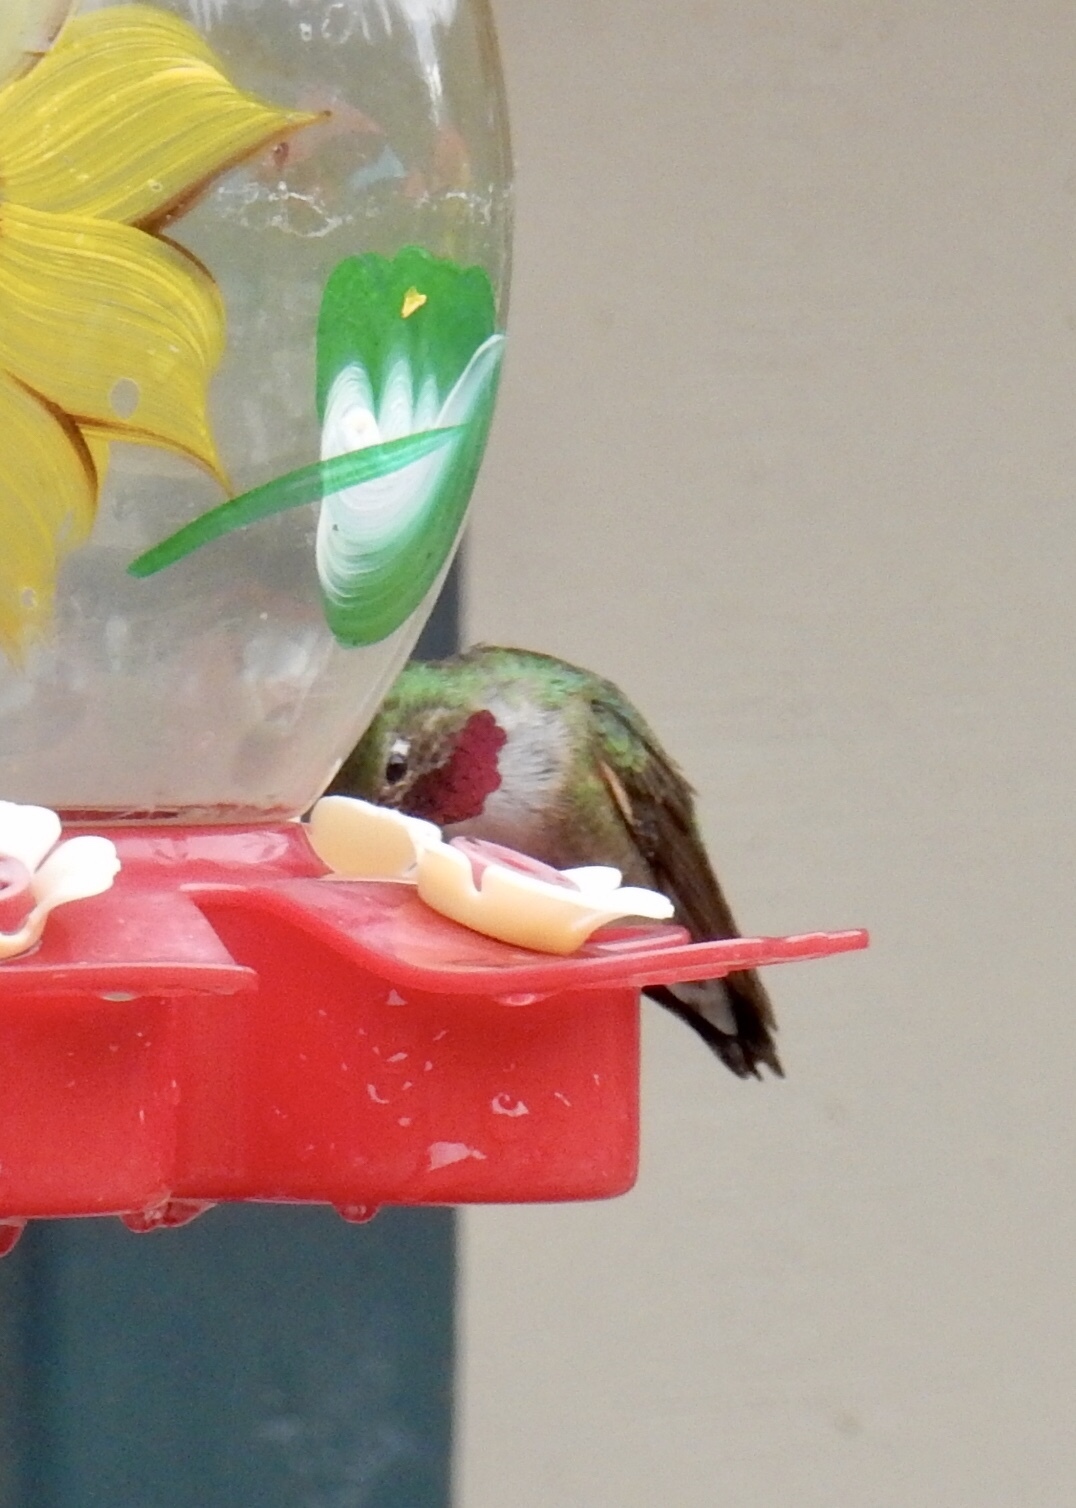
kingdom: Animalia
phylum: Chordata
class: Aves
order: Apodiformes
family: Trochilidae
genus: Selasphorus
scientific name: Selasphorus platycercus
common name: Broad-tailed hummingbird
